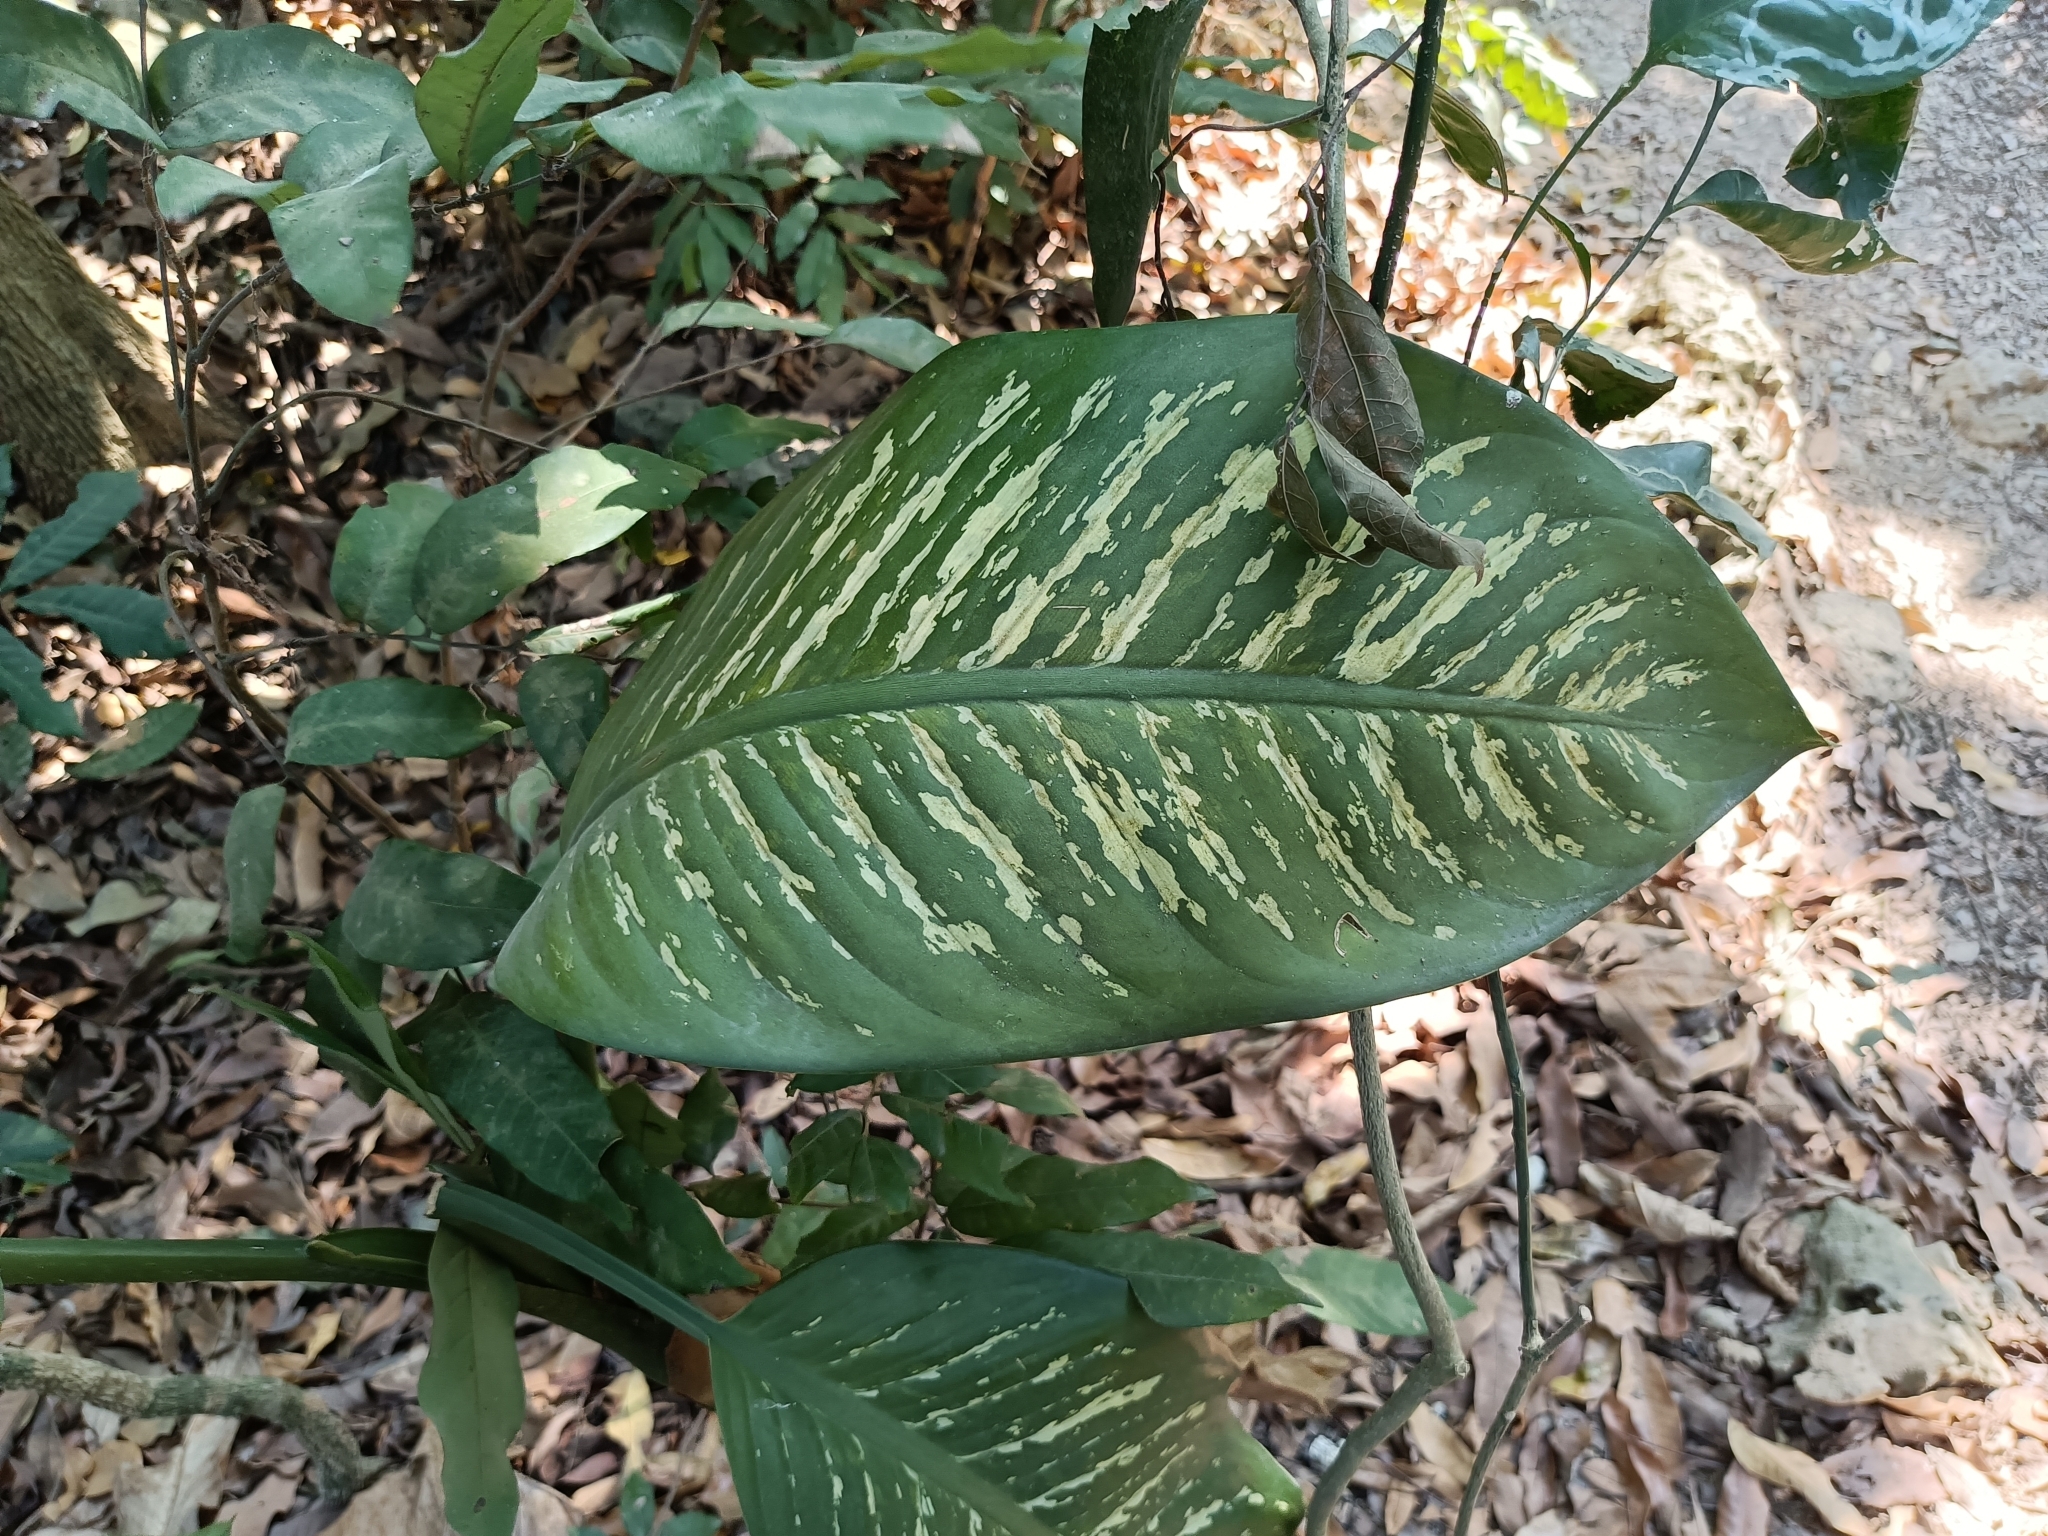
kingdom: Plantae
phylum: Tracheophyta
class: Liliopsida
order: Alismatales
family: Araceae
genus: Dieffenbachia
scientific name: Dieffenbachia seguine
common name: Dumbcane
